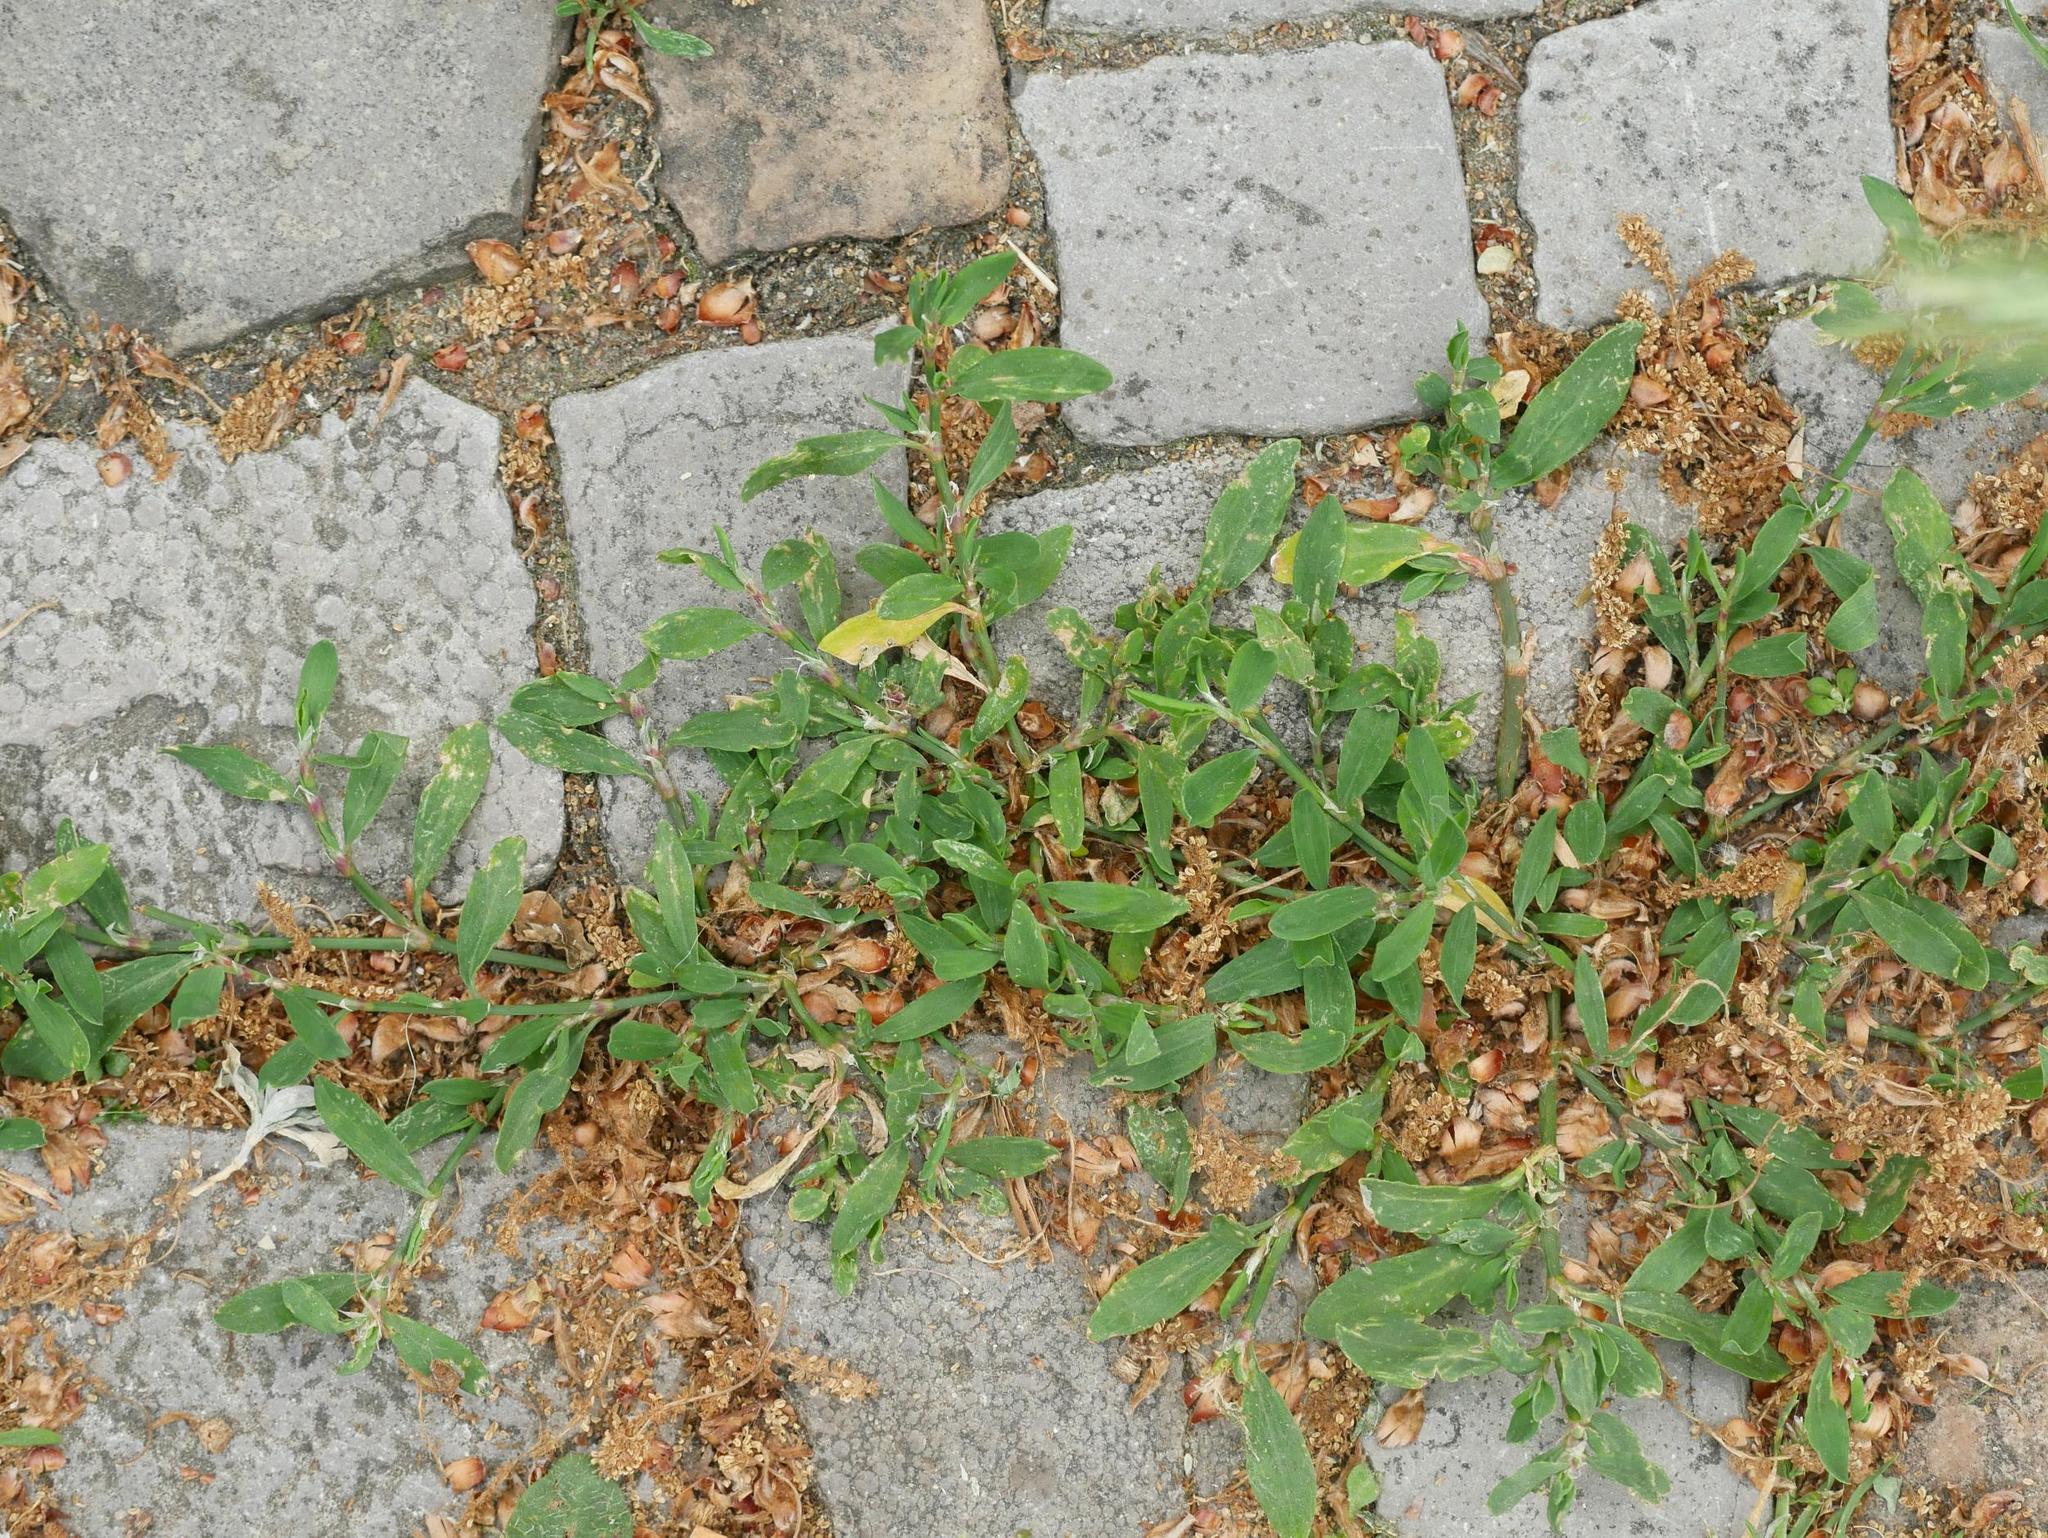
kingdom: Plantae
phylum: Tracheophyta
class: Magnoliopsida
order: Caryophyllales
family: Polygonaceae
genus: Polygonum
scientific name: Polygonum aviculare
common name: Prostrate knotweed
